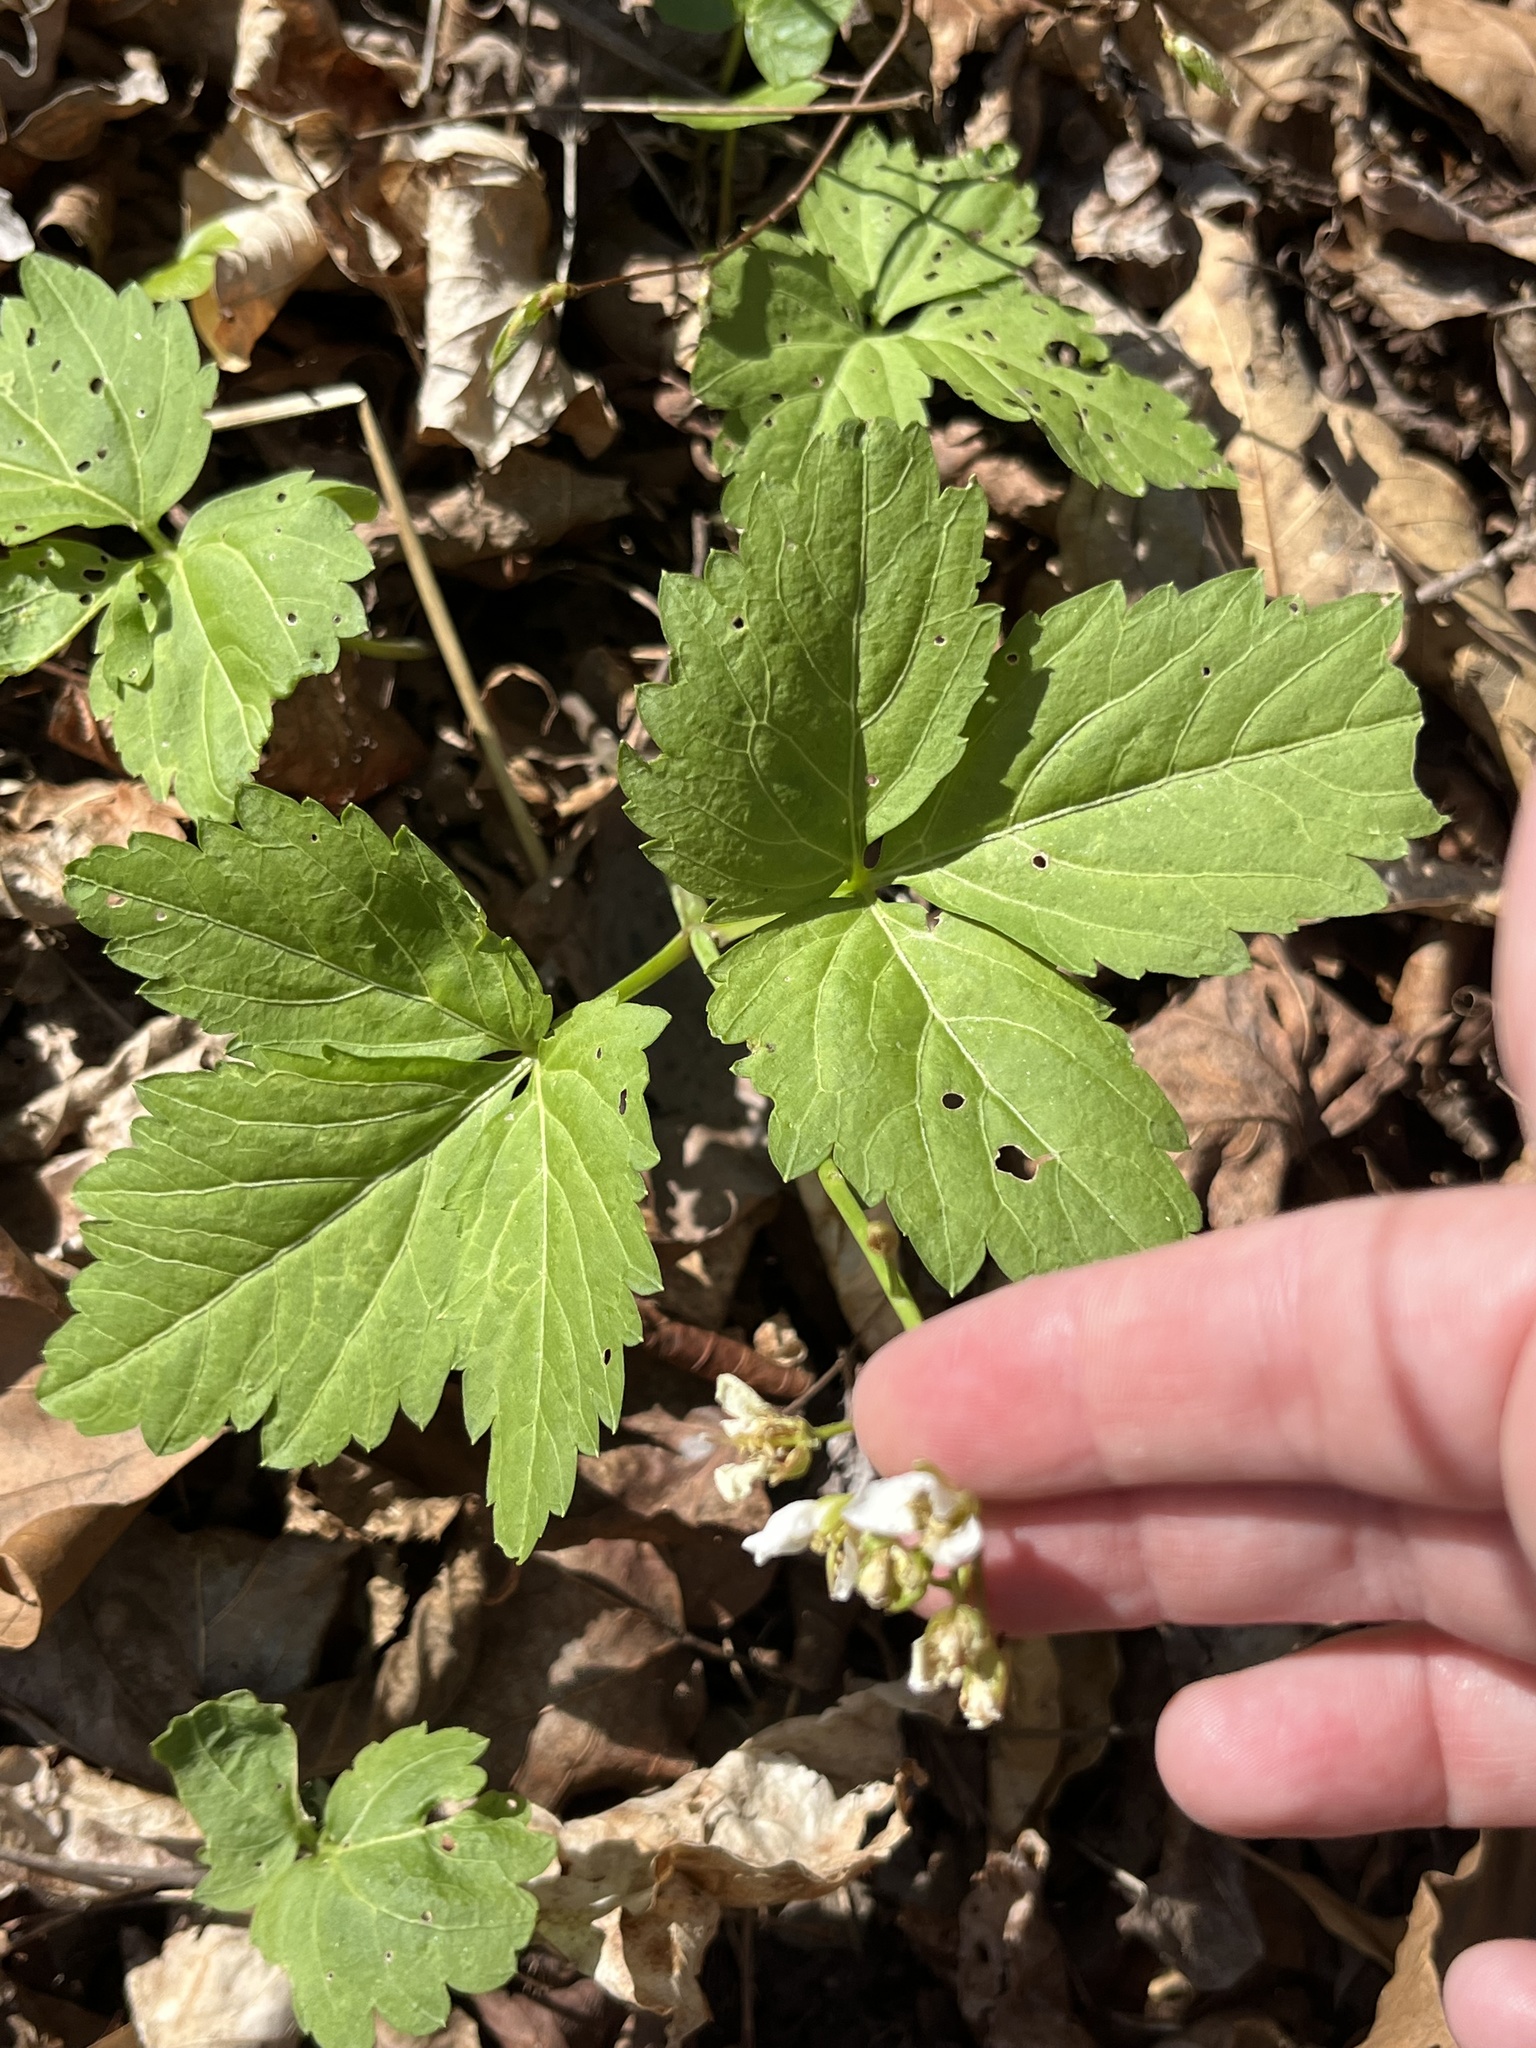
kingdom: Plantae
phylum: Tracheophyta
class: Magnoliopsida
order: Brassicales
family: Brassicaceae
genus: Cardamine
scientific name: Cardamine diphylla
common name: Broad-leaved toothwort
